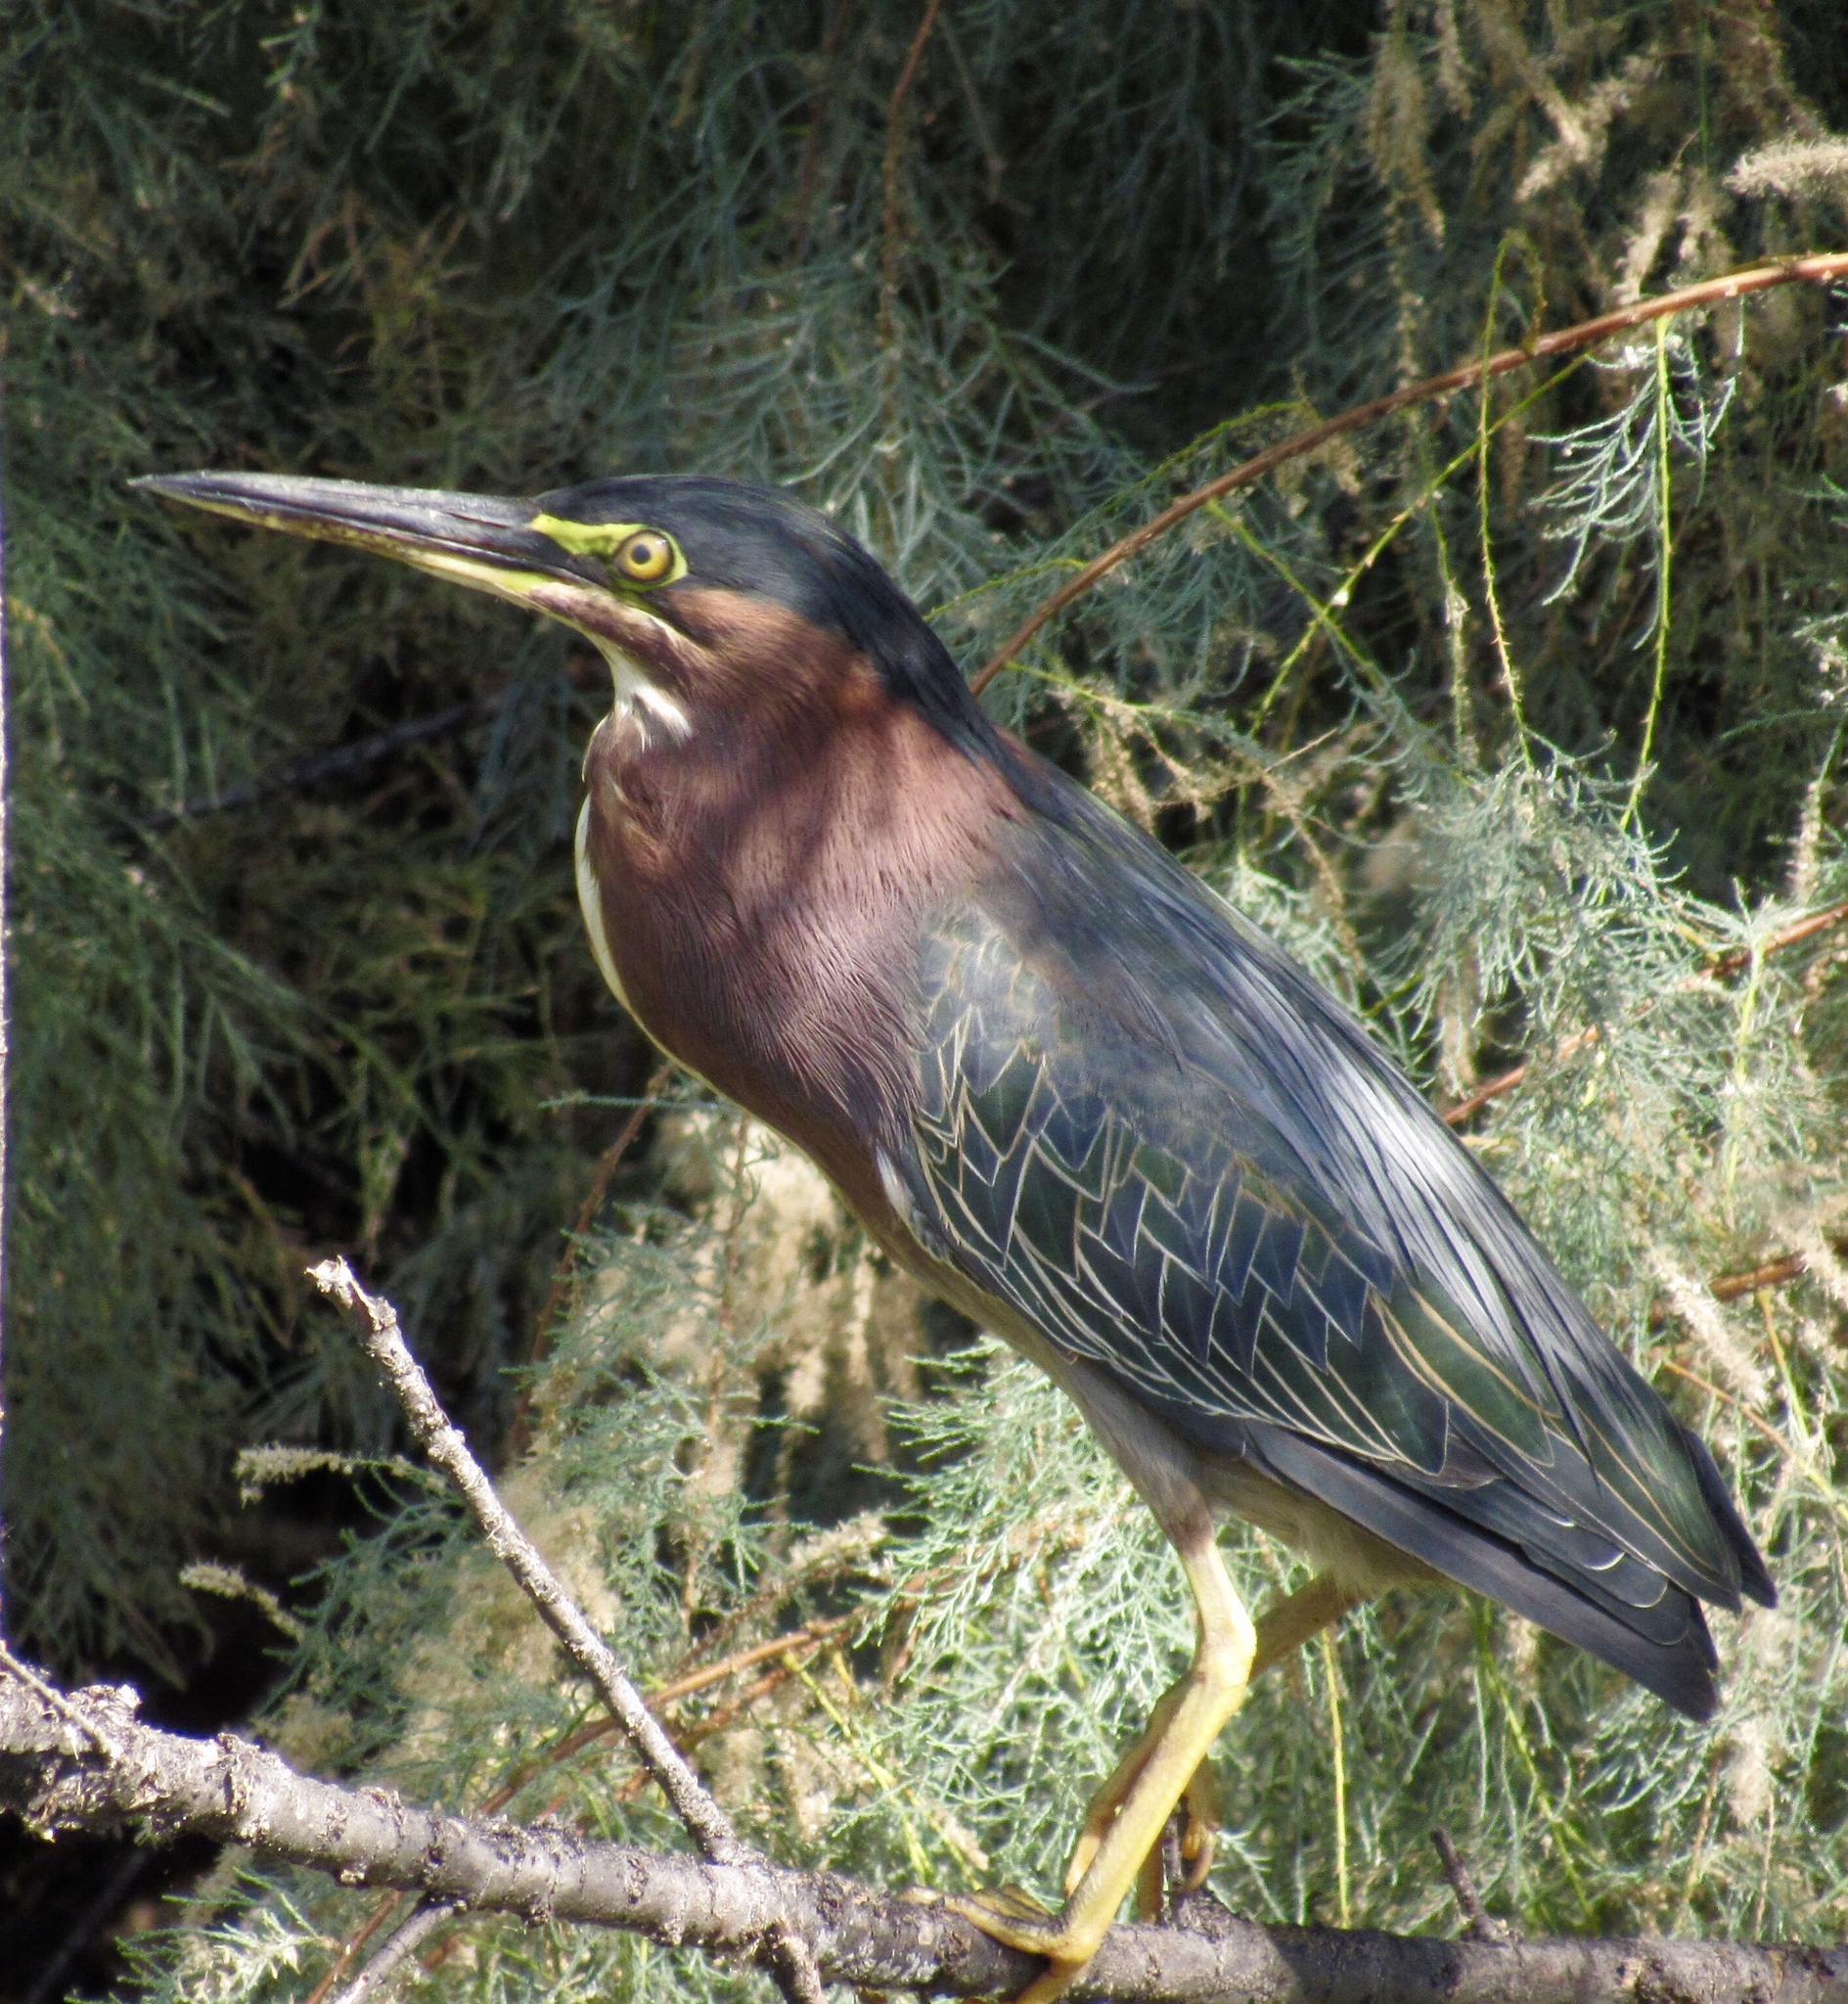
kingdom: Animalia
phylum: Chordata
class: Aves
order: Pelecaniformes
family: Ardeidae
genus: Butorides
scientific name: Butorides virescens
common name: Green heron
